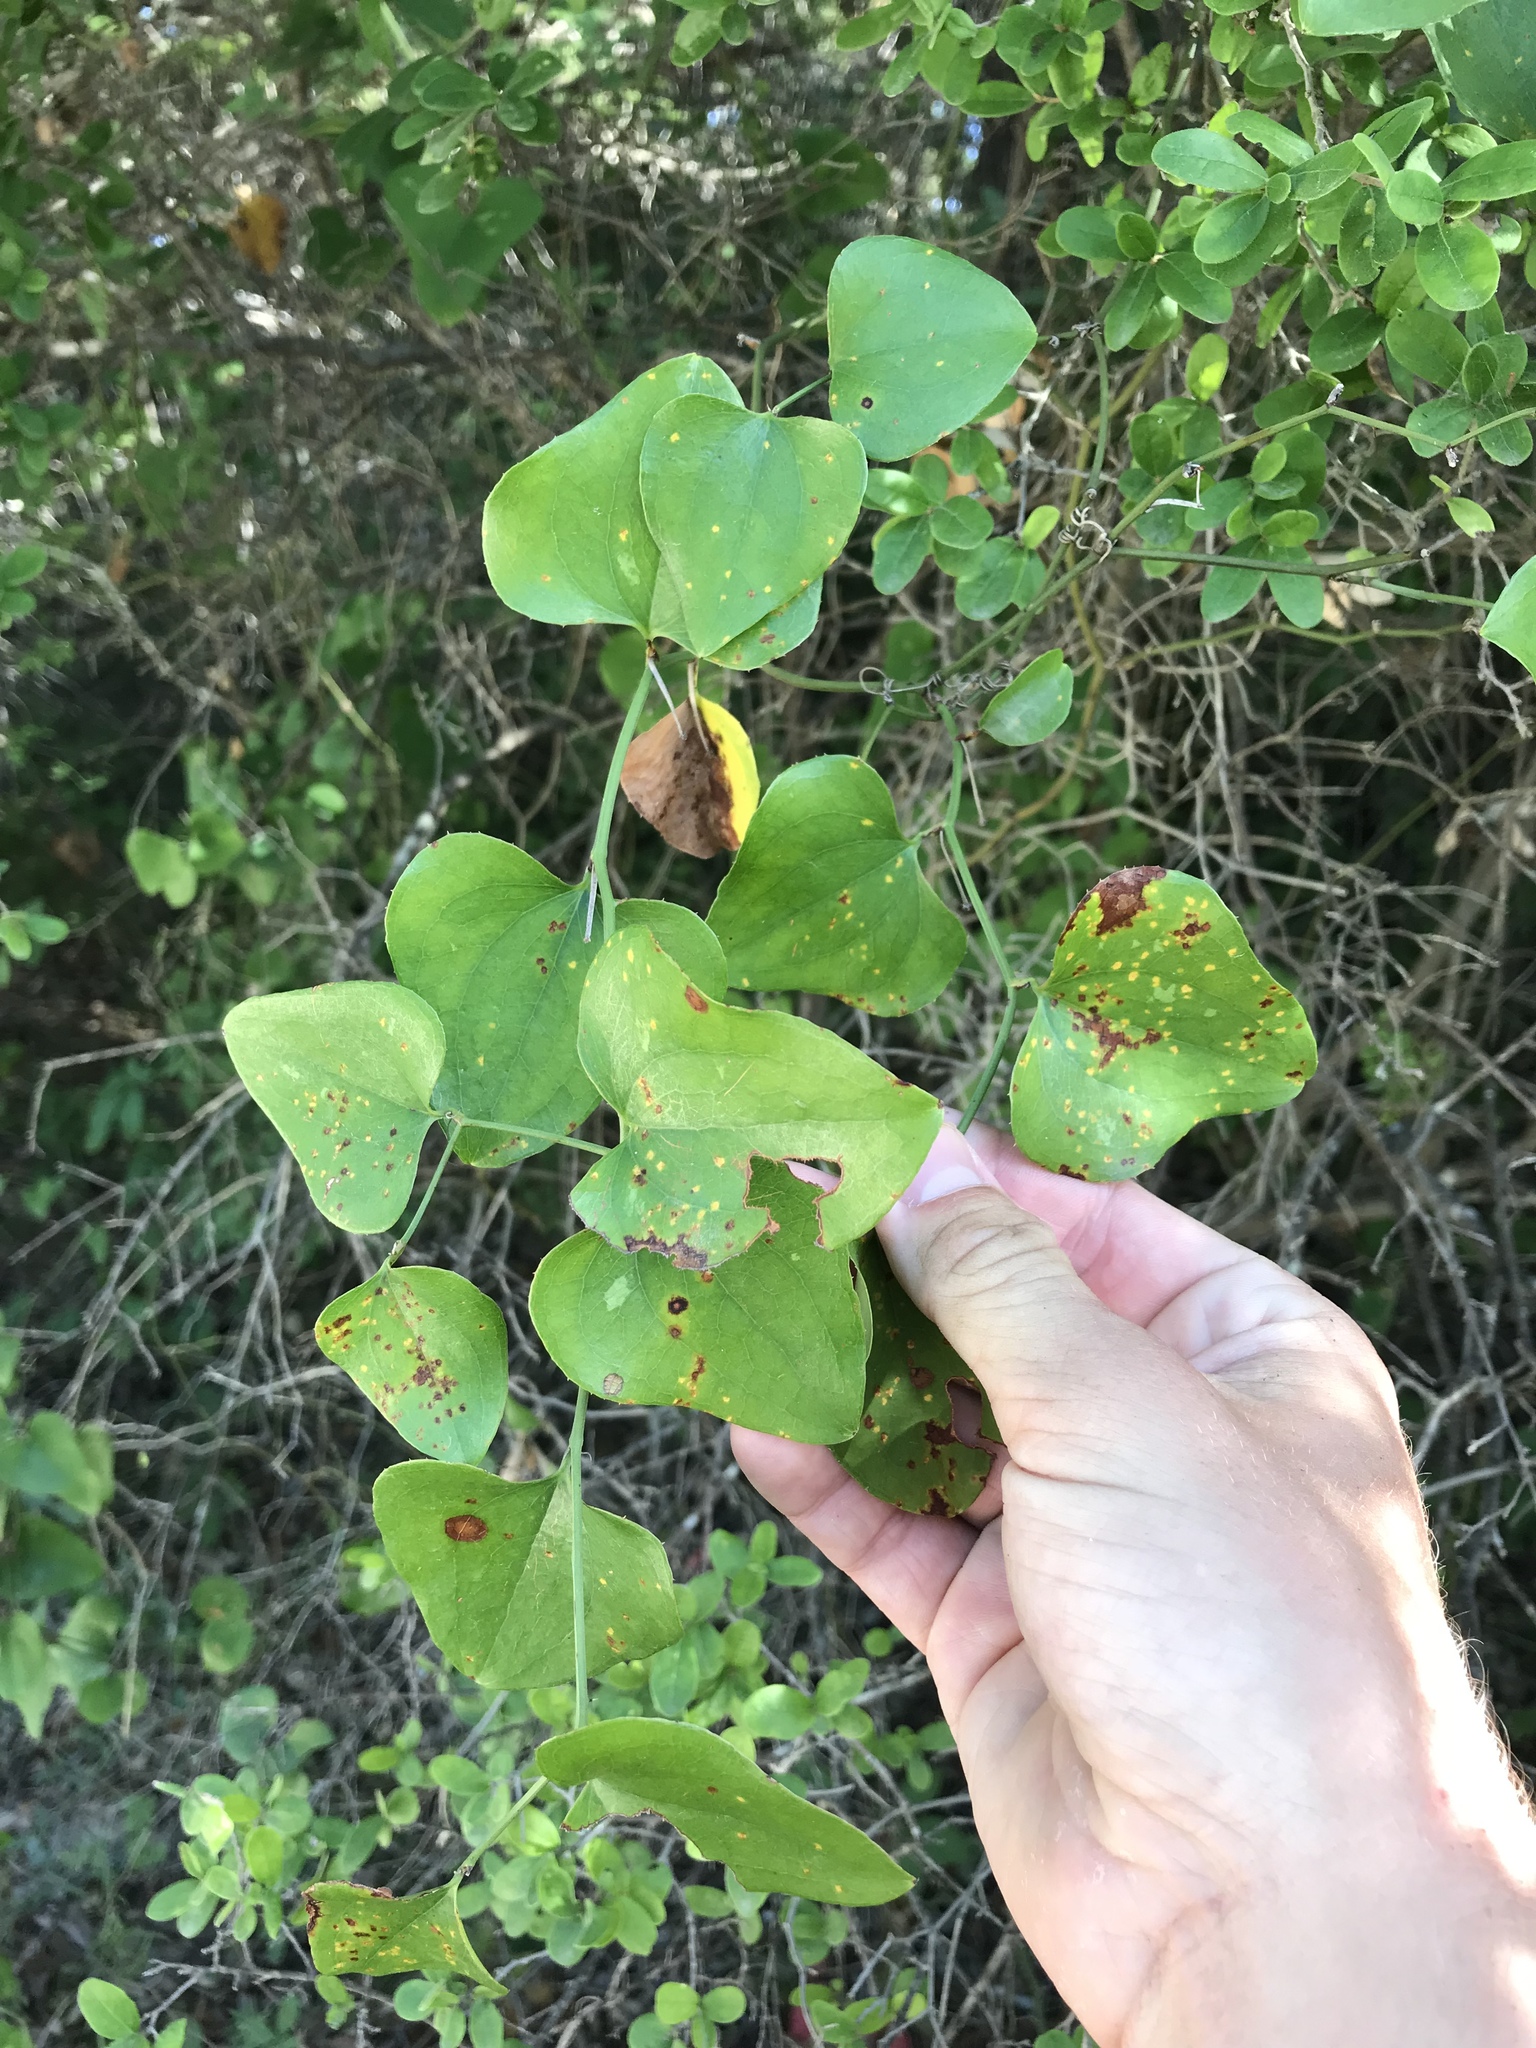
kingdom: Plantae
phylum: Tracheophyta
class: Liliopsida
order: Liliales
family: Smilacaceae
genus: Smilax
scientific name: Smilax bona-nox
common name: Catbrier
